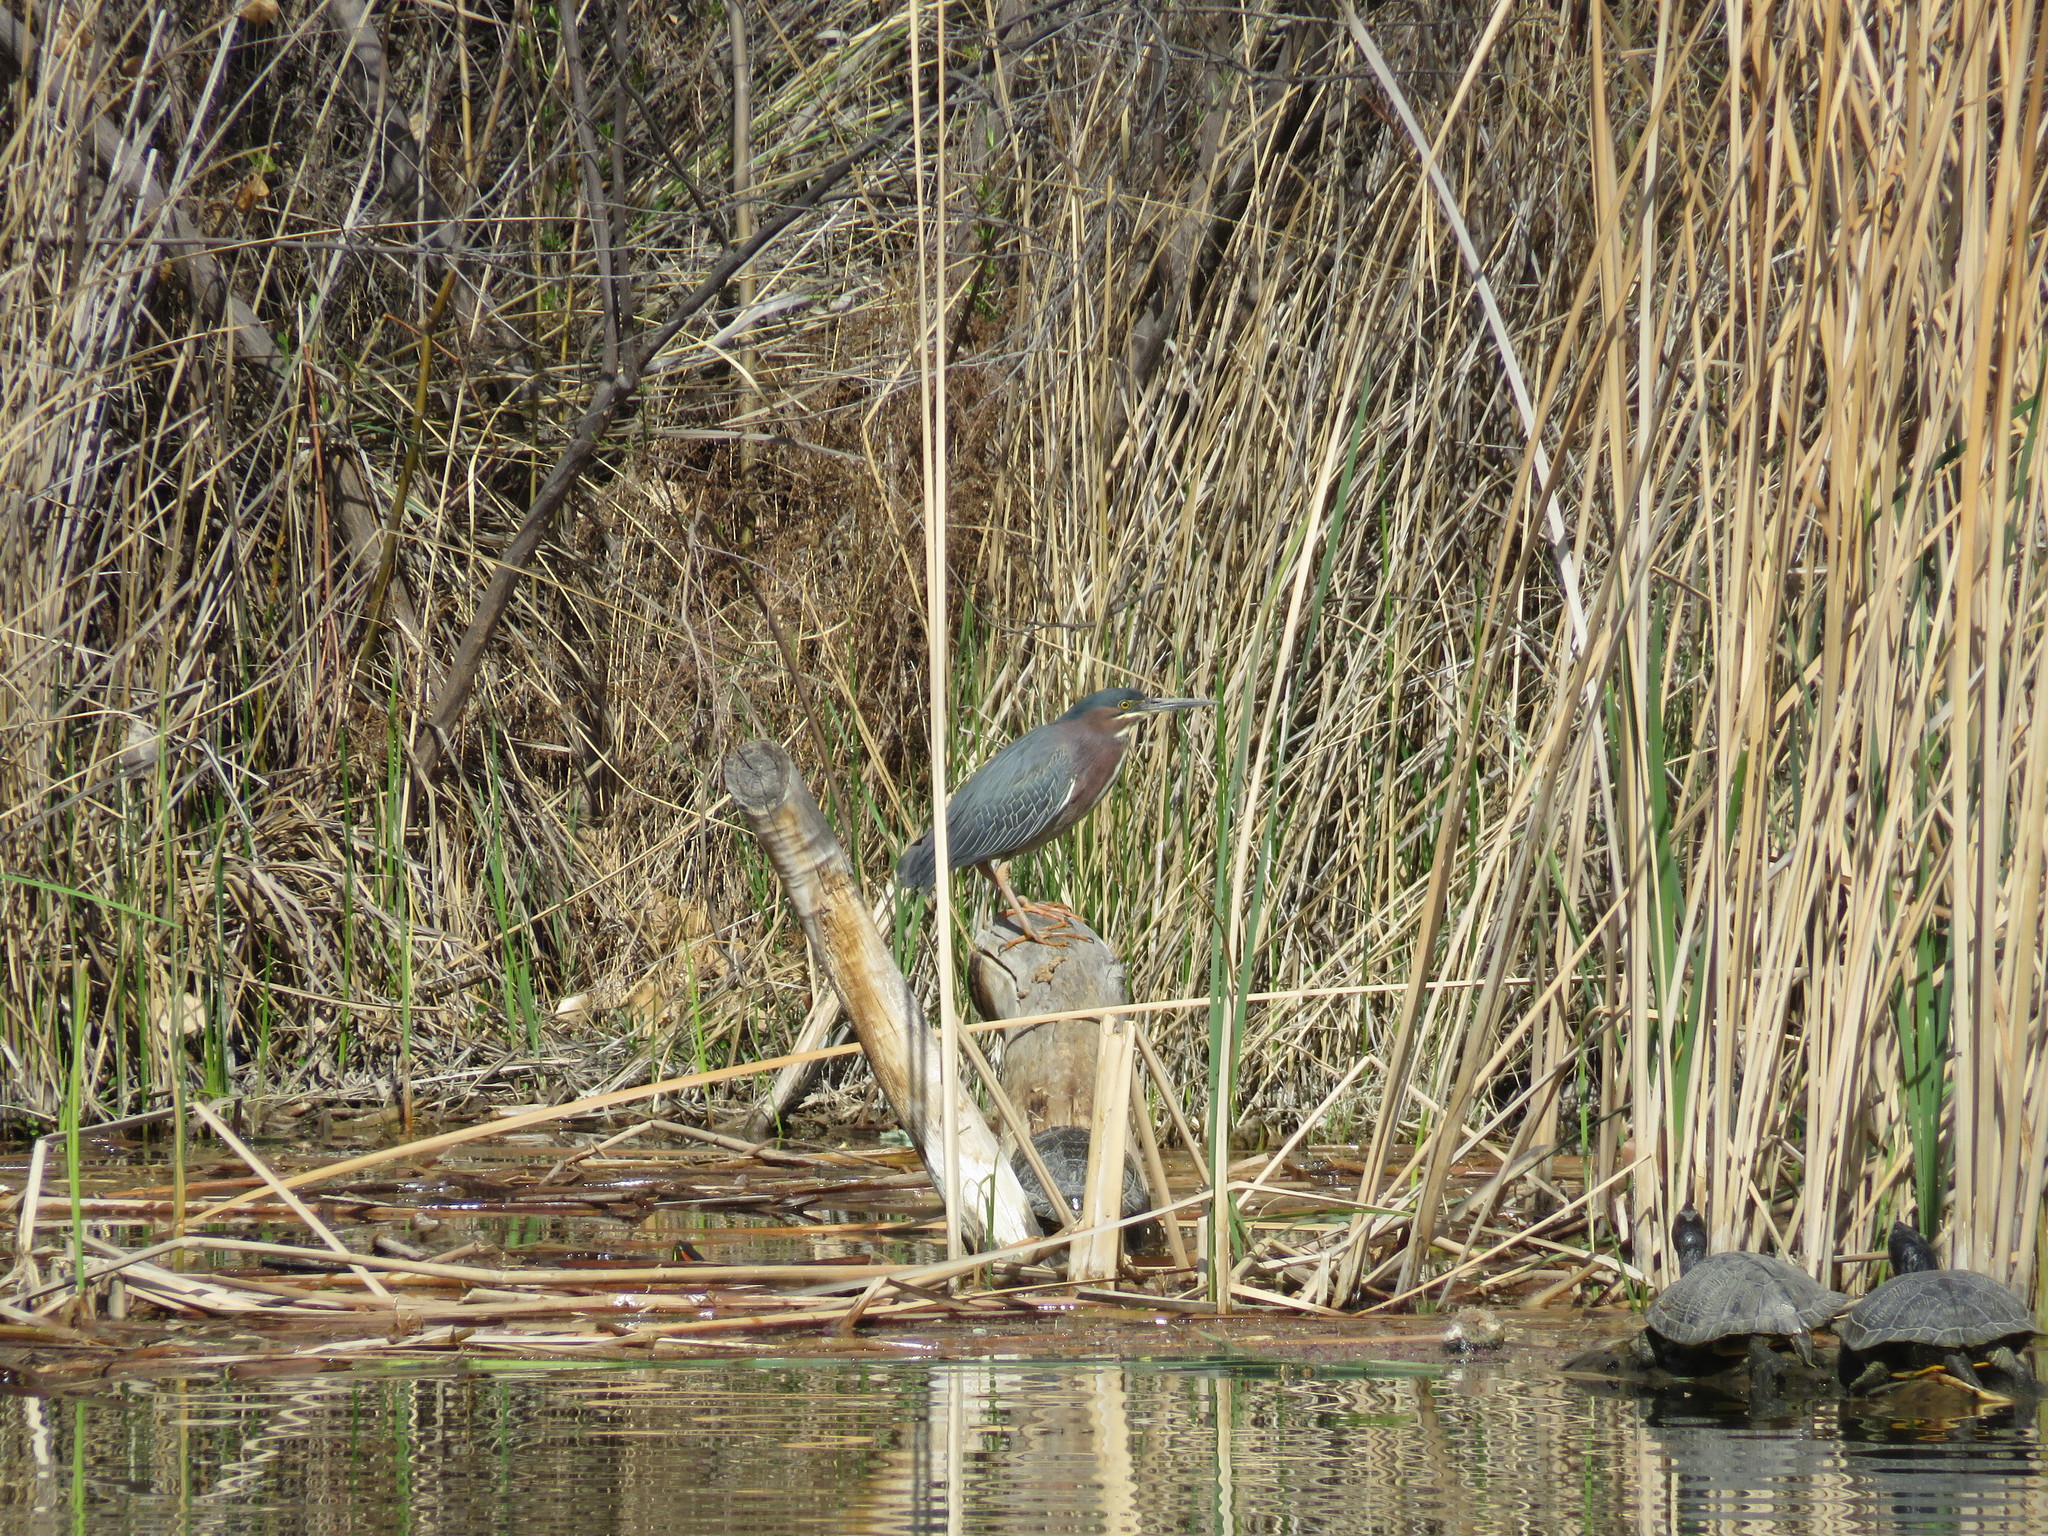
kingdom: Animalia
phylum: Chordata
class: Aves
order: Pelecaniformes
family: Ardeidae
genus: Butorides
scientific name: Butorides virescens
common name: Green heron
